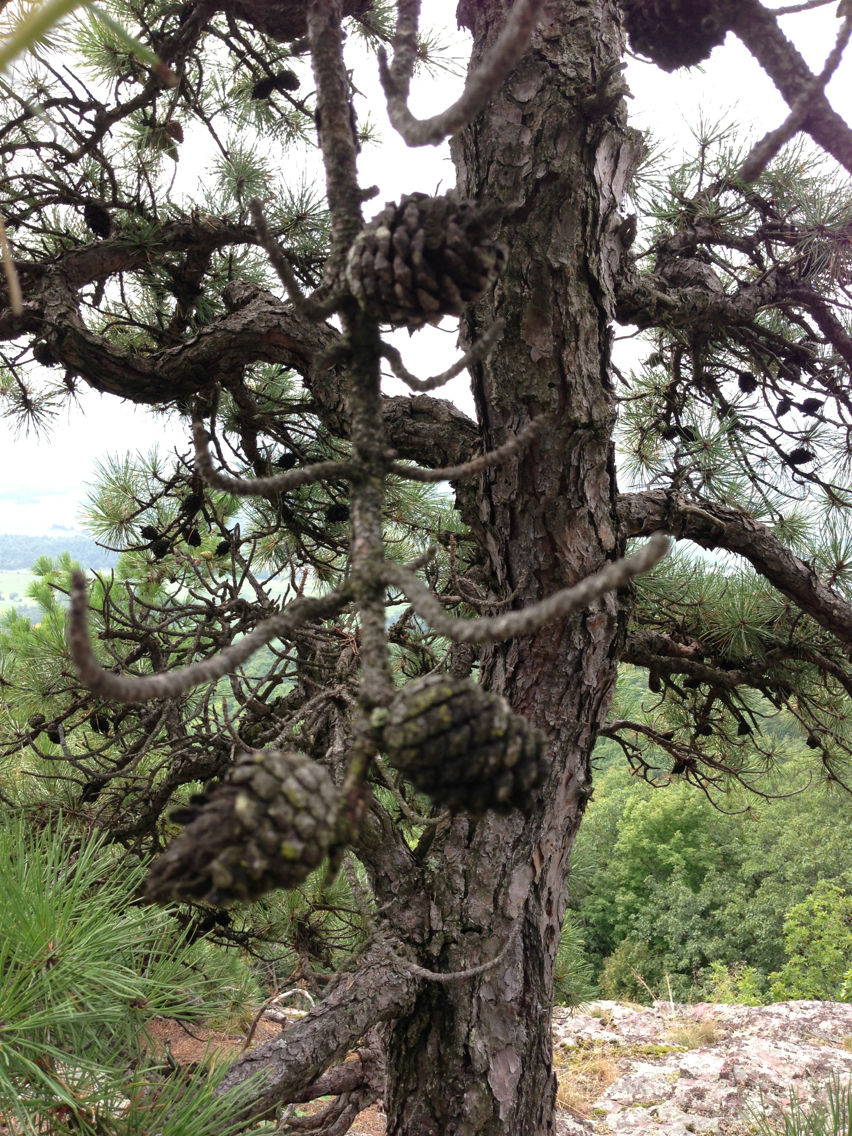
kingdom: Plantae
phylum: Tracheophyta
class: Pinopsida
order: Pinales
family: Pinaceae
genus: Pinus
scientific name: Pinus rigida
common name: Pitch pine
